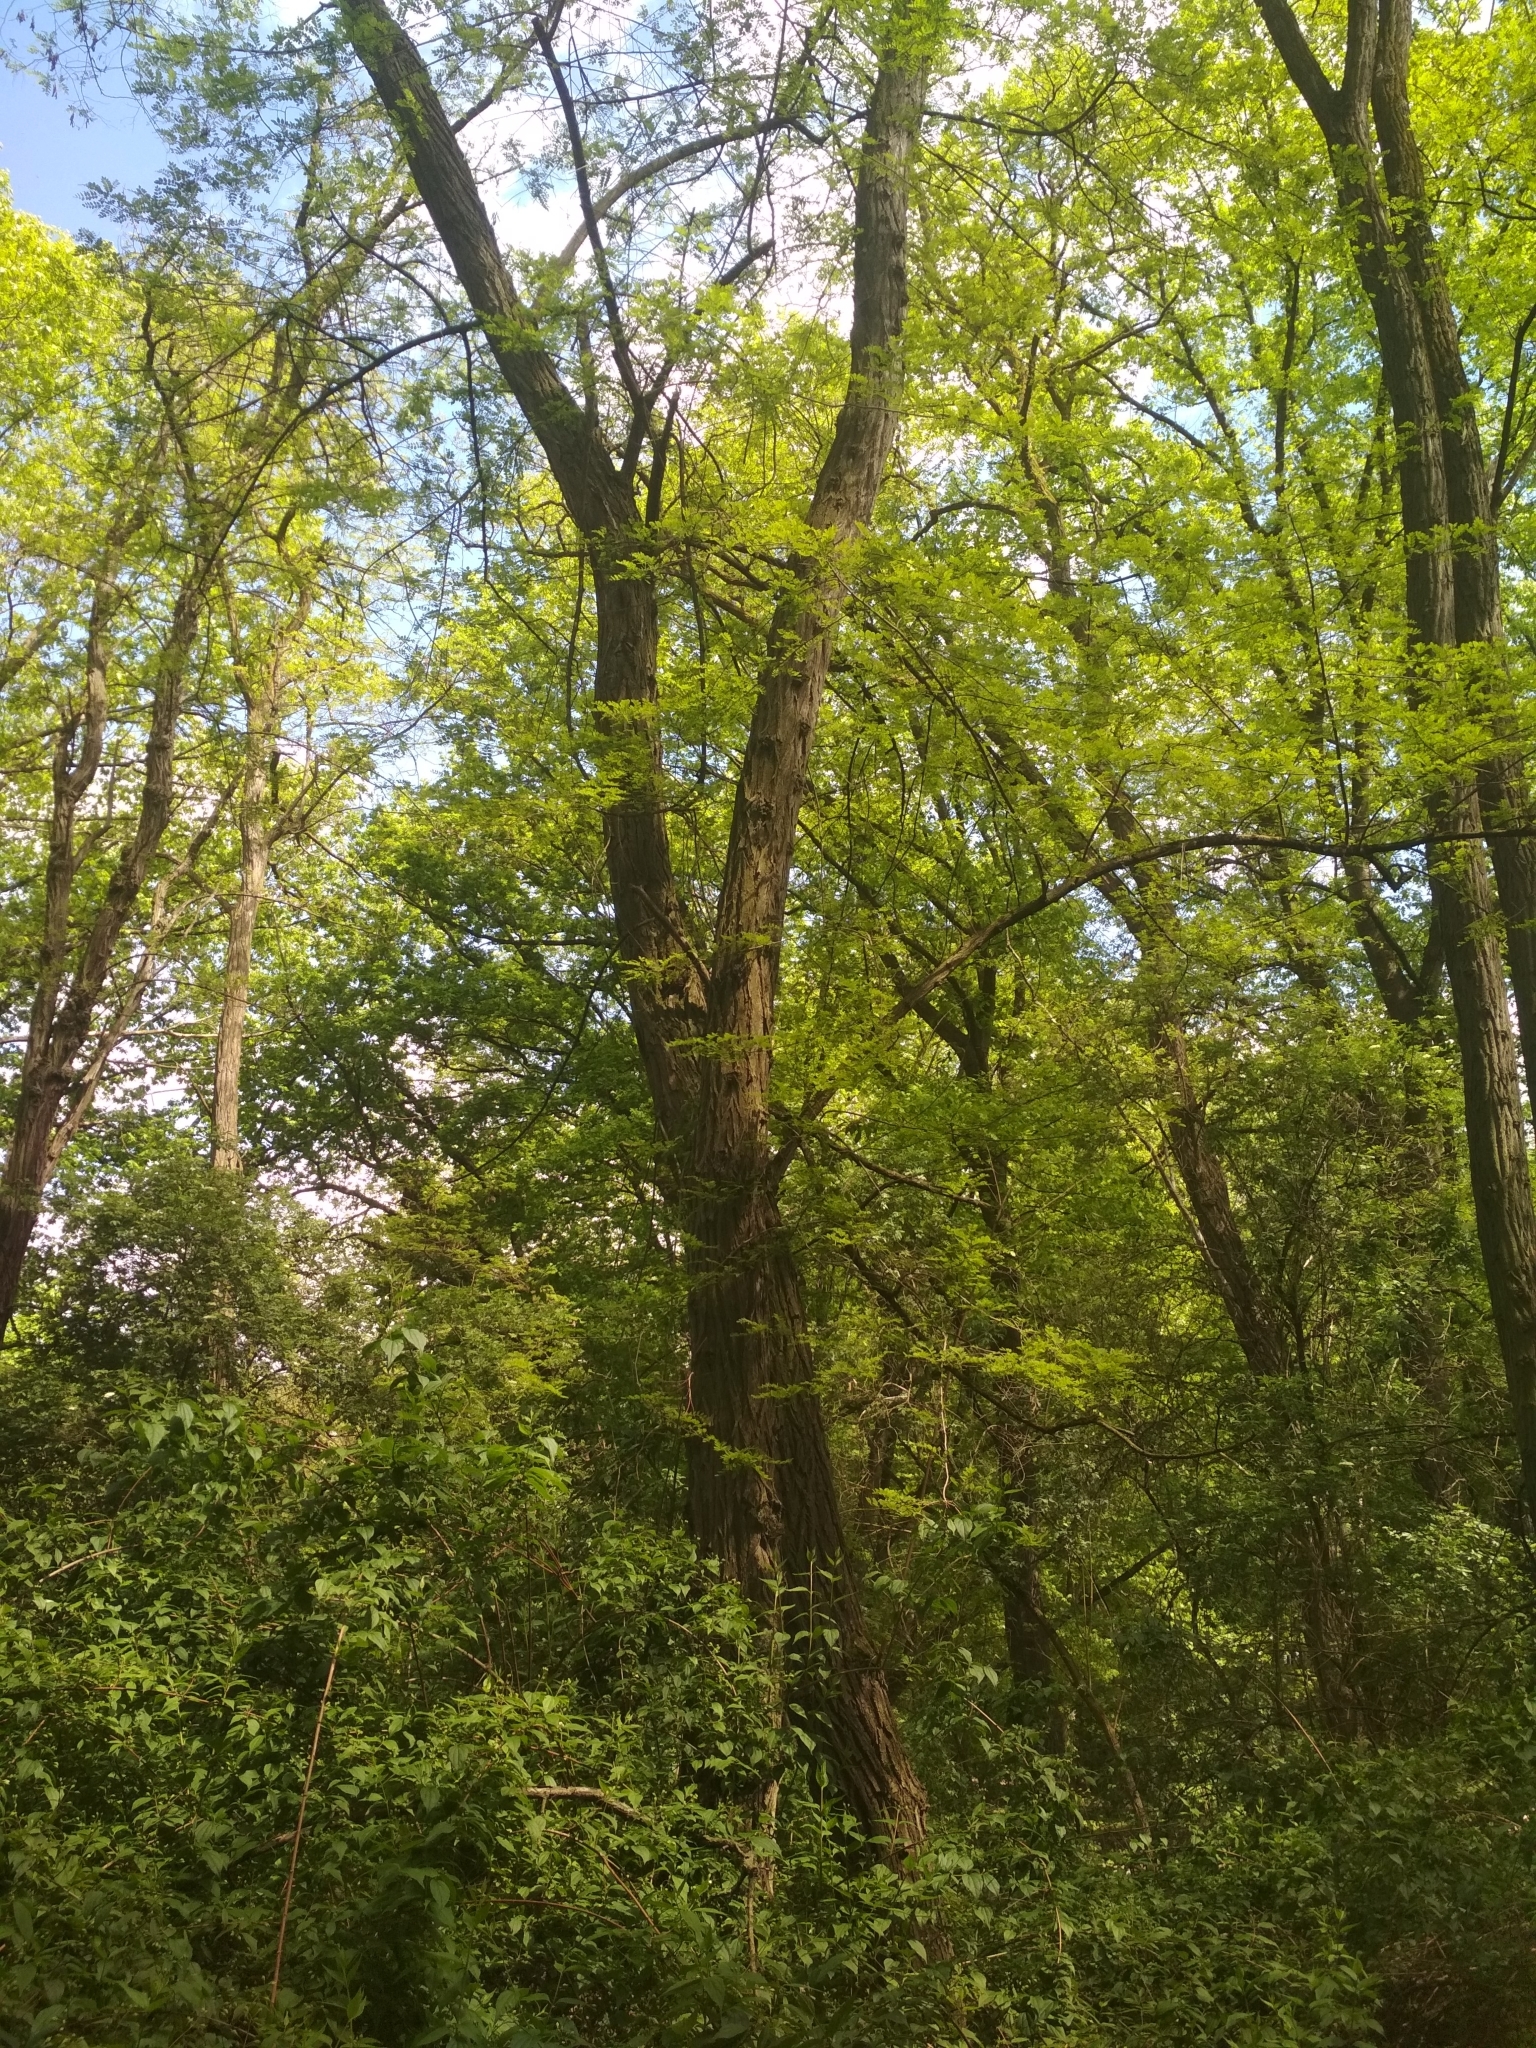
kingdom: Plantae
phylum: Tracheophyta
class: Magnoliopsida
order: Fabales
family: Fabaceae
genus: Robinia
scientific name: Robinia pseudoacacia
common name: Black locust
